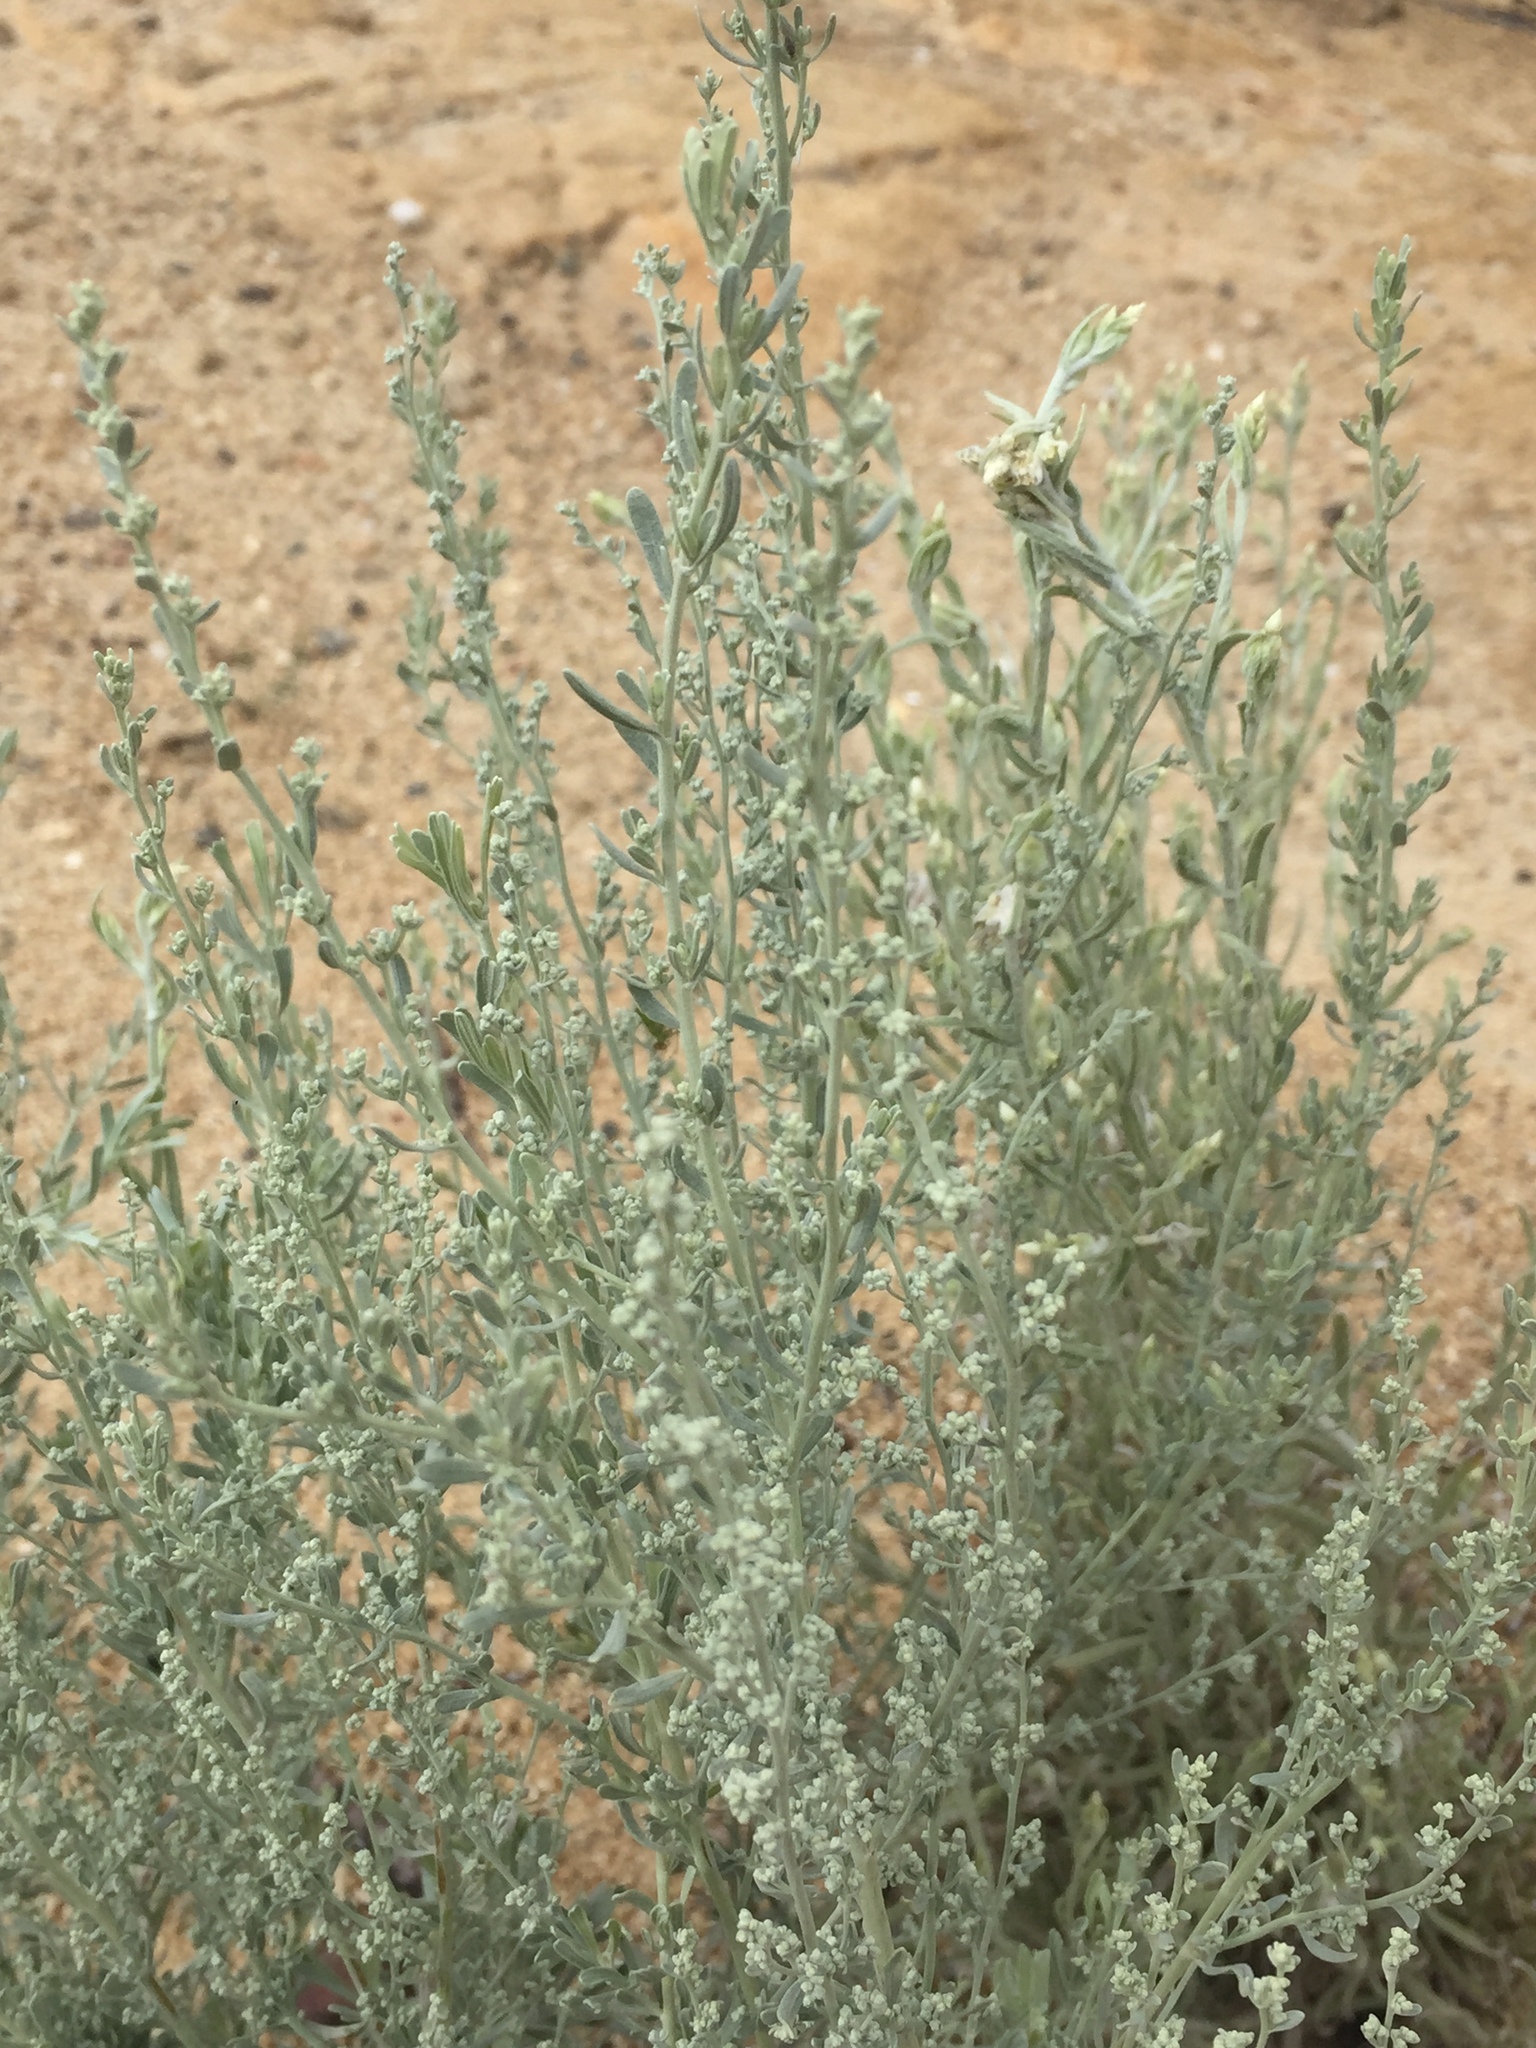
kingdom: Plantae
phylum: Tracheophyta
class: Magnoliopsida
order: Asterales
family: Asteraceae
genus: Artemisia
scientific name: Artemisia tridentata
